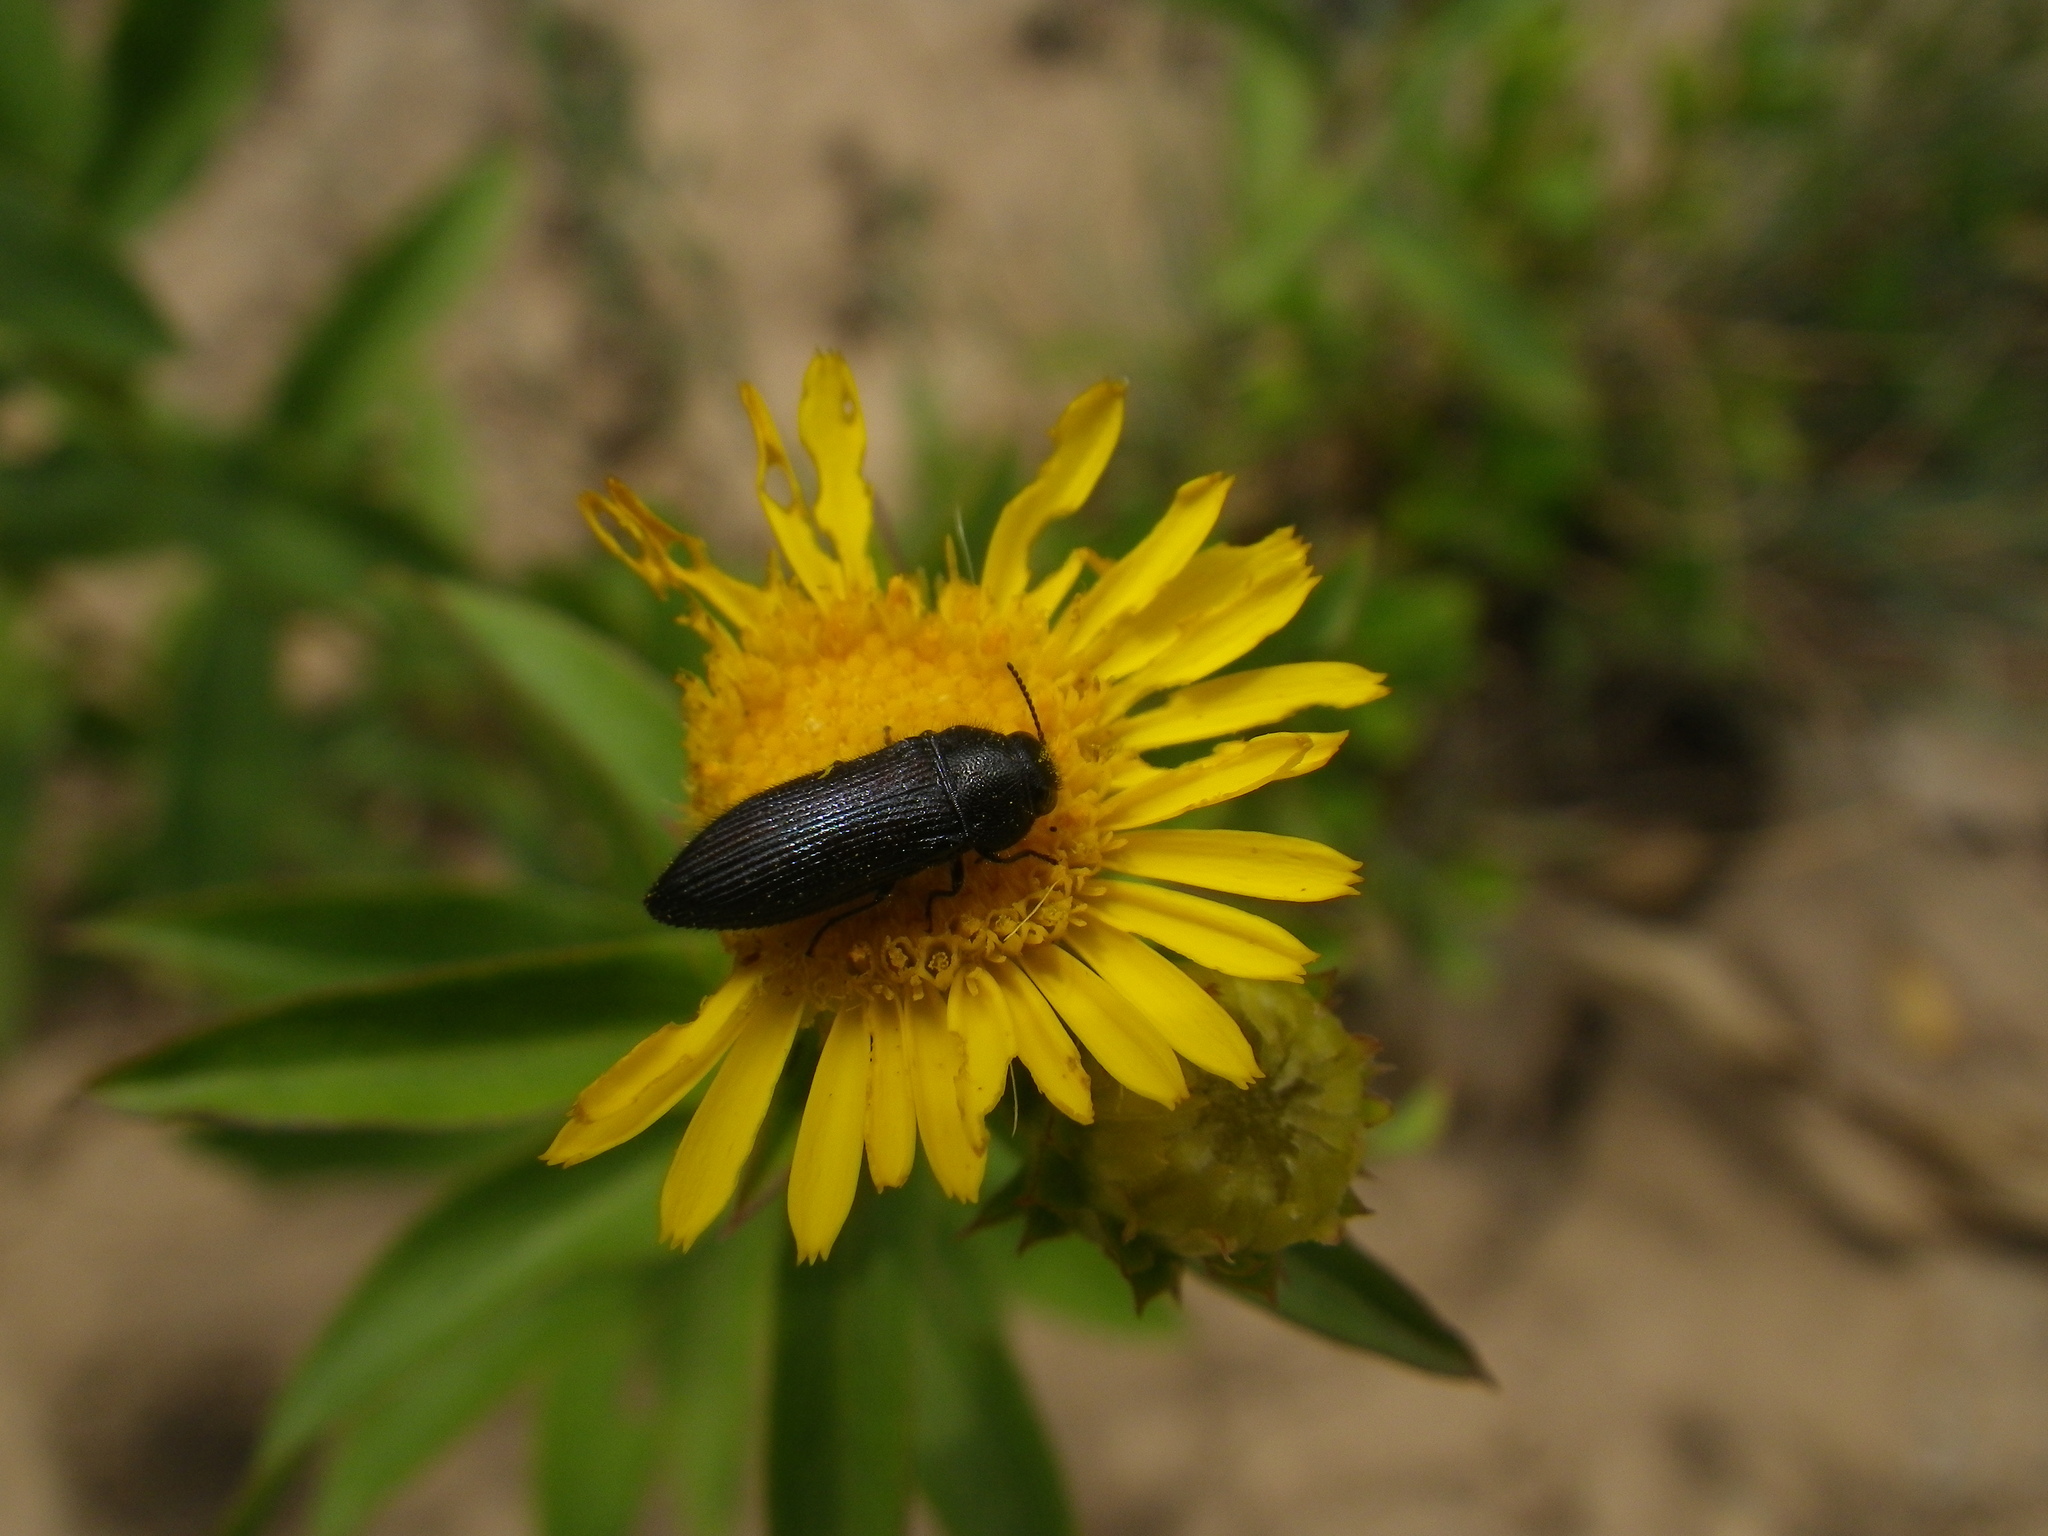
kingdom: Animalia
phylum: Arthropoda
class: Insecta
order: Coleoptera
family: Buprestidae
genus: Acmaeodera
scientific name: Acmaeodera quadrifasciata
